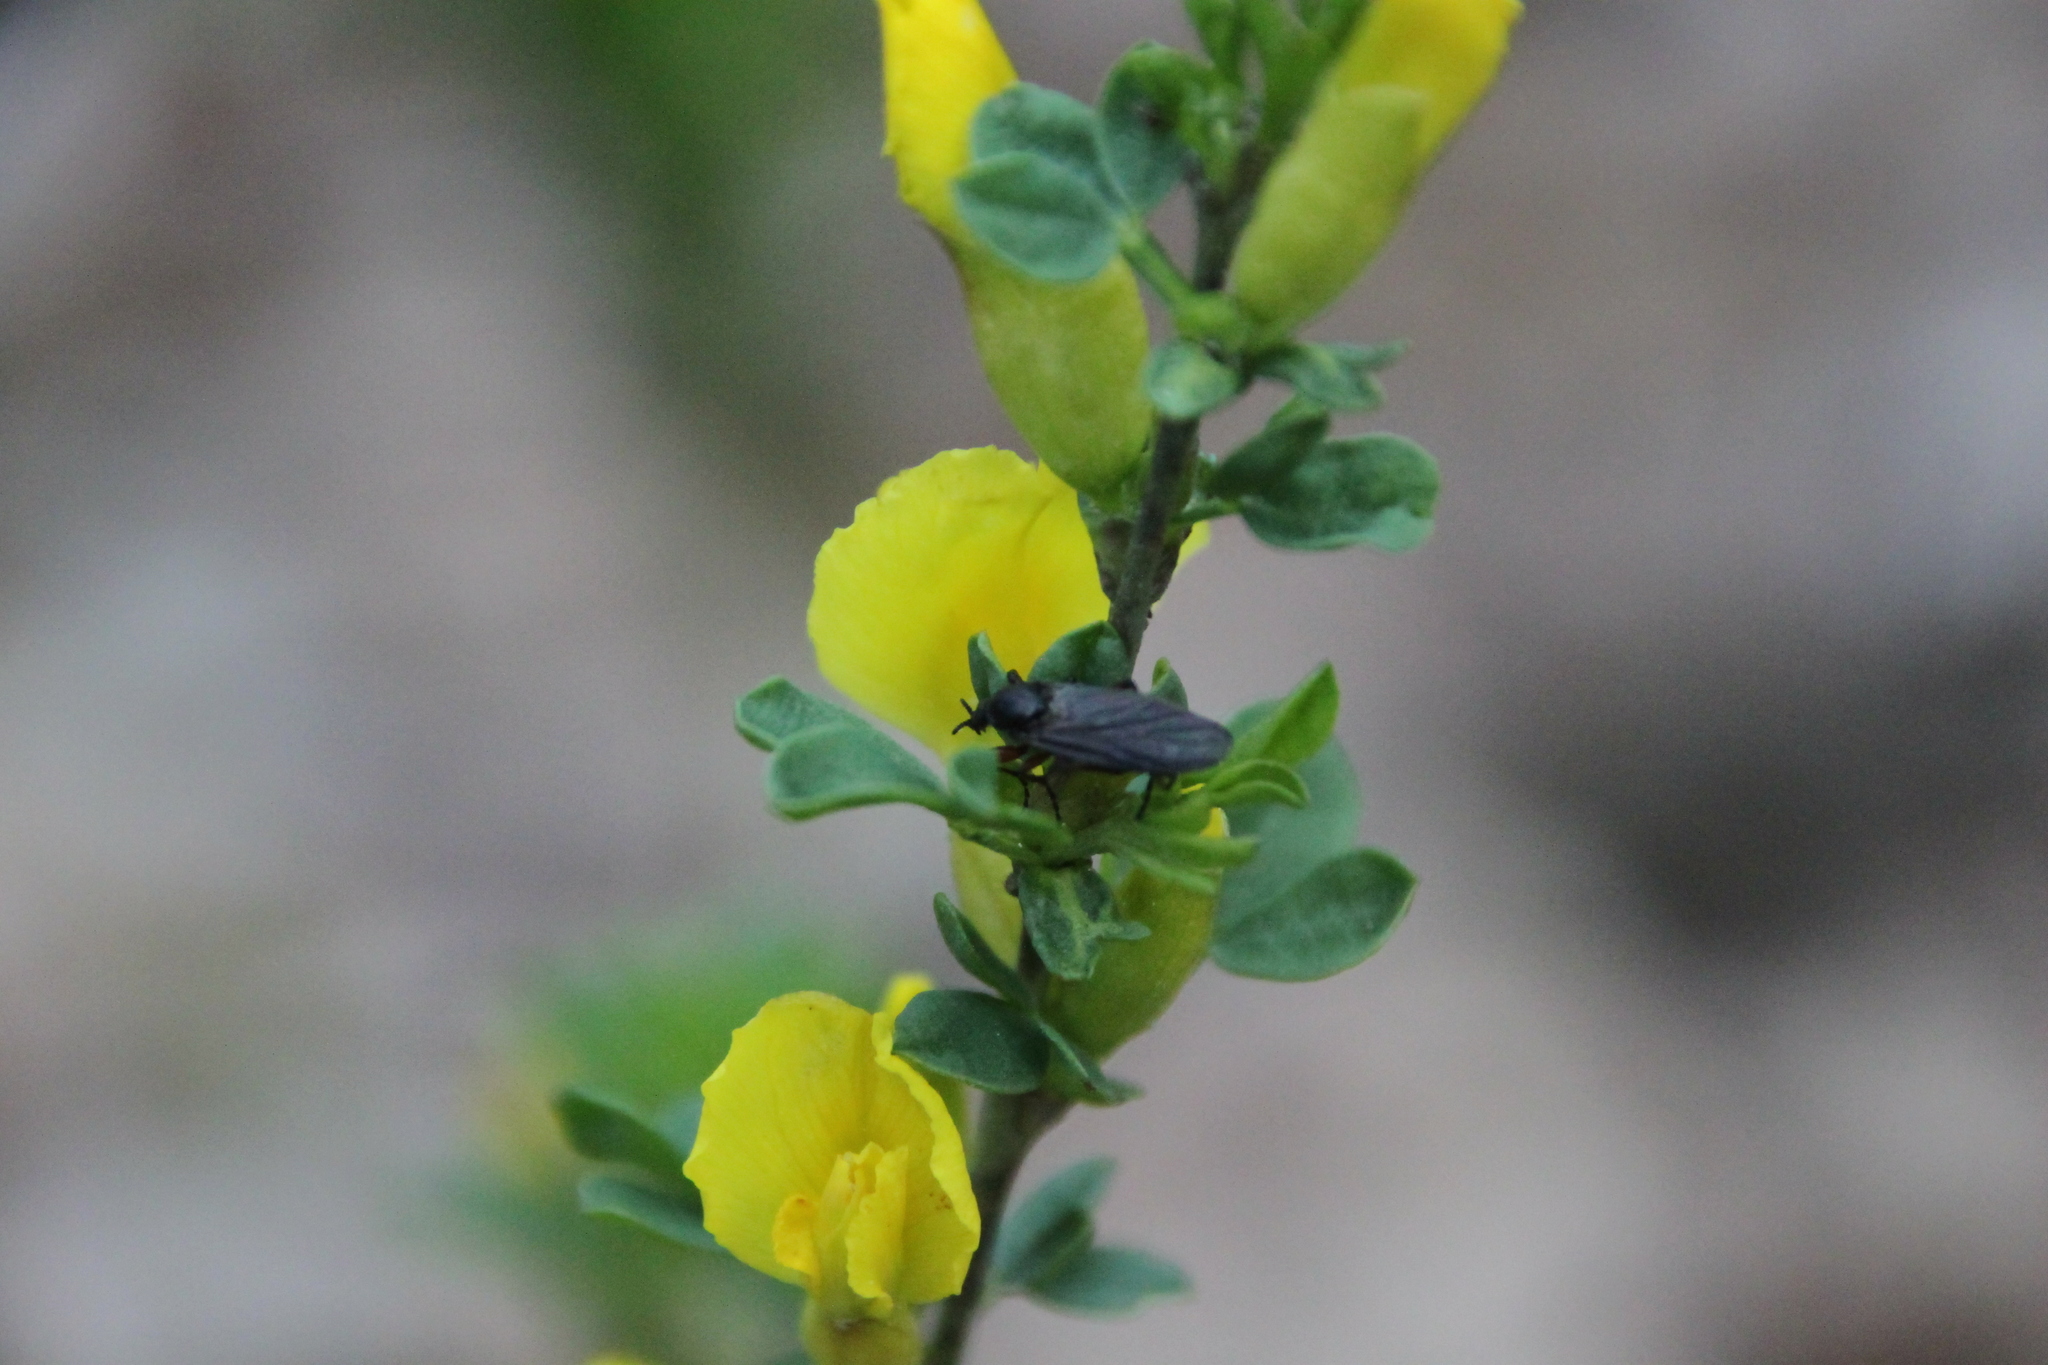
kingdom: Plantae
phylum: Tracheophyta
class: Magnoliopsida
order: Fabales
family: Fabaceae
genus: Chamaecytisus
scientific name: Chamaecytisus ruthenicus
